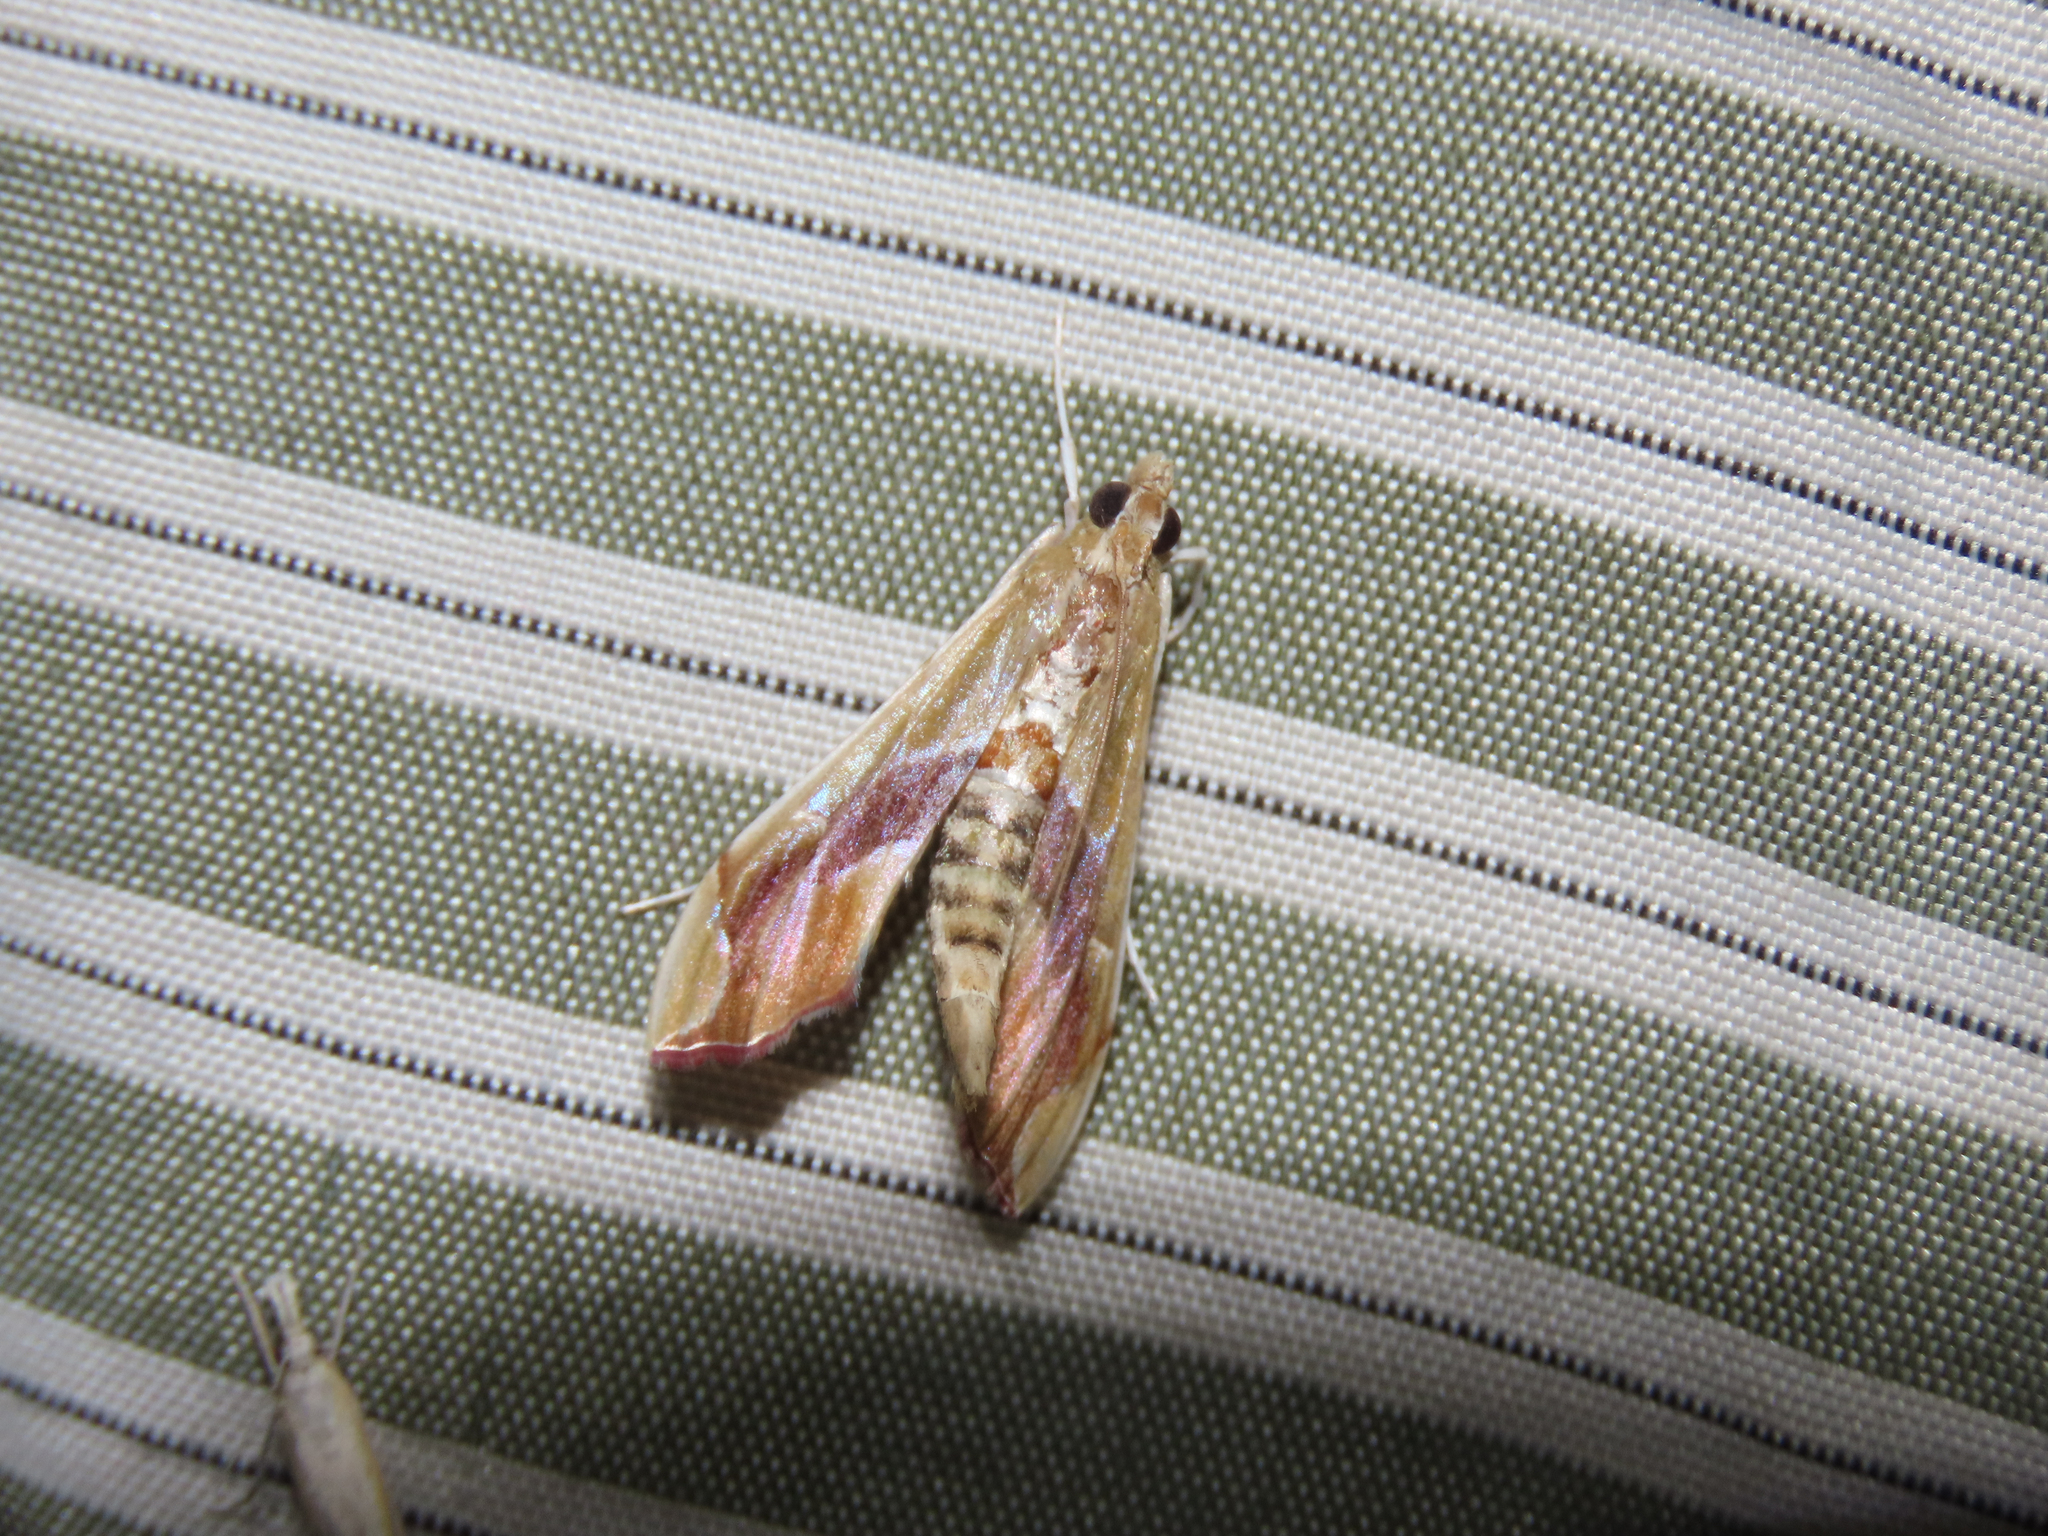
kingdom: Animalia
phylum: Arthropoda
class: Insecta
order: Lepidoptera
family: Crambidae
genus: Agathodes
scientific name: Agathodes monstralis
